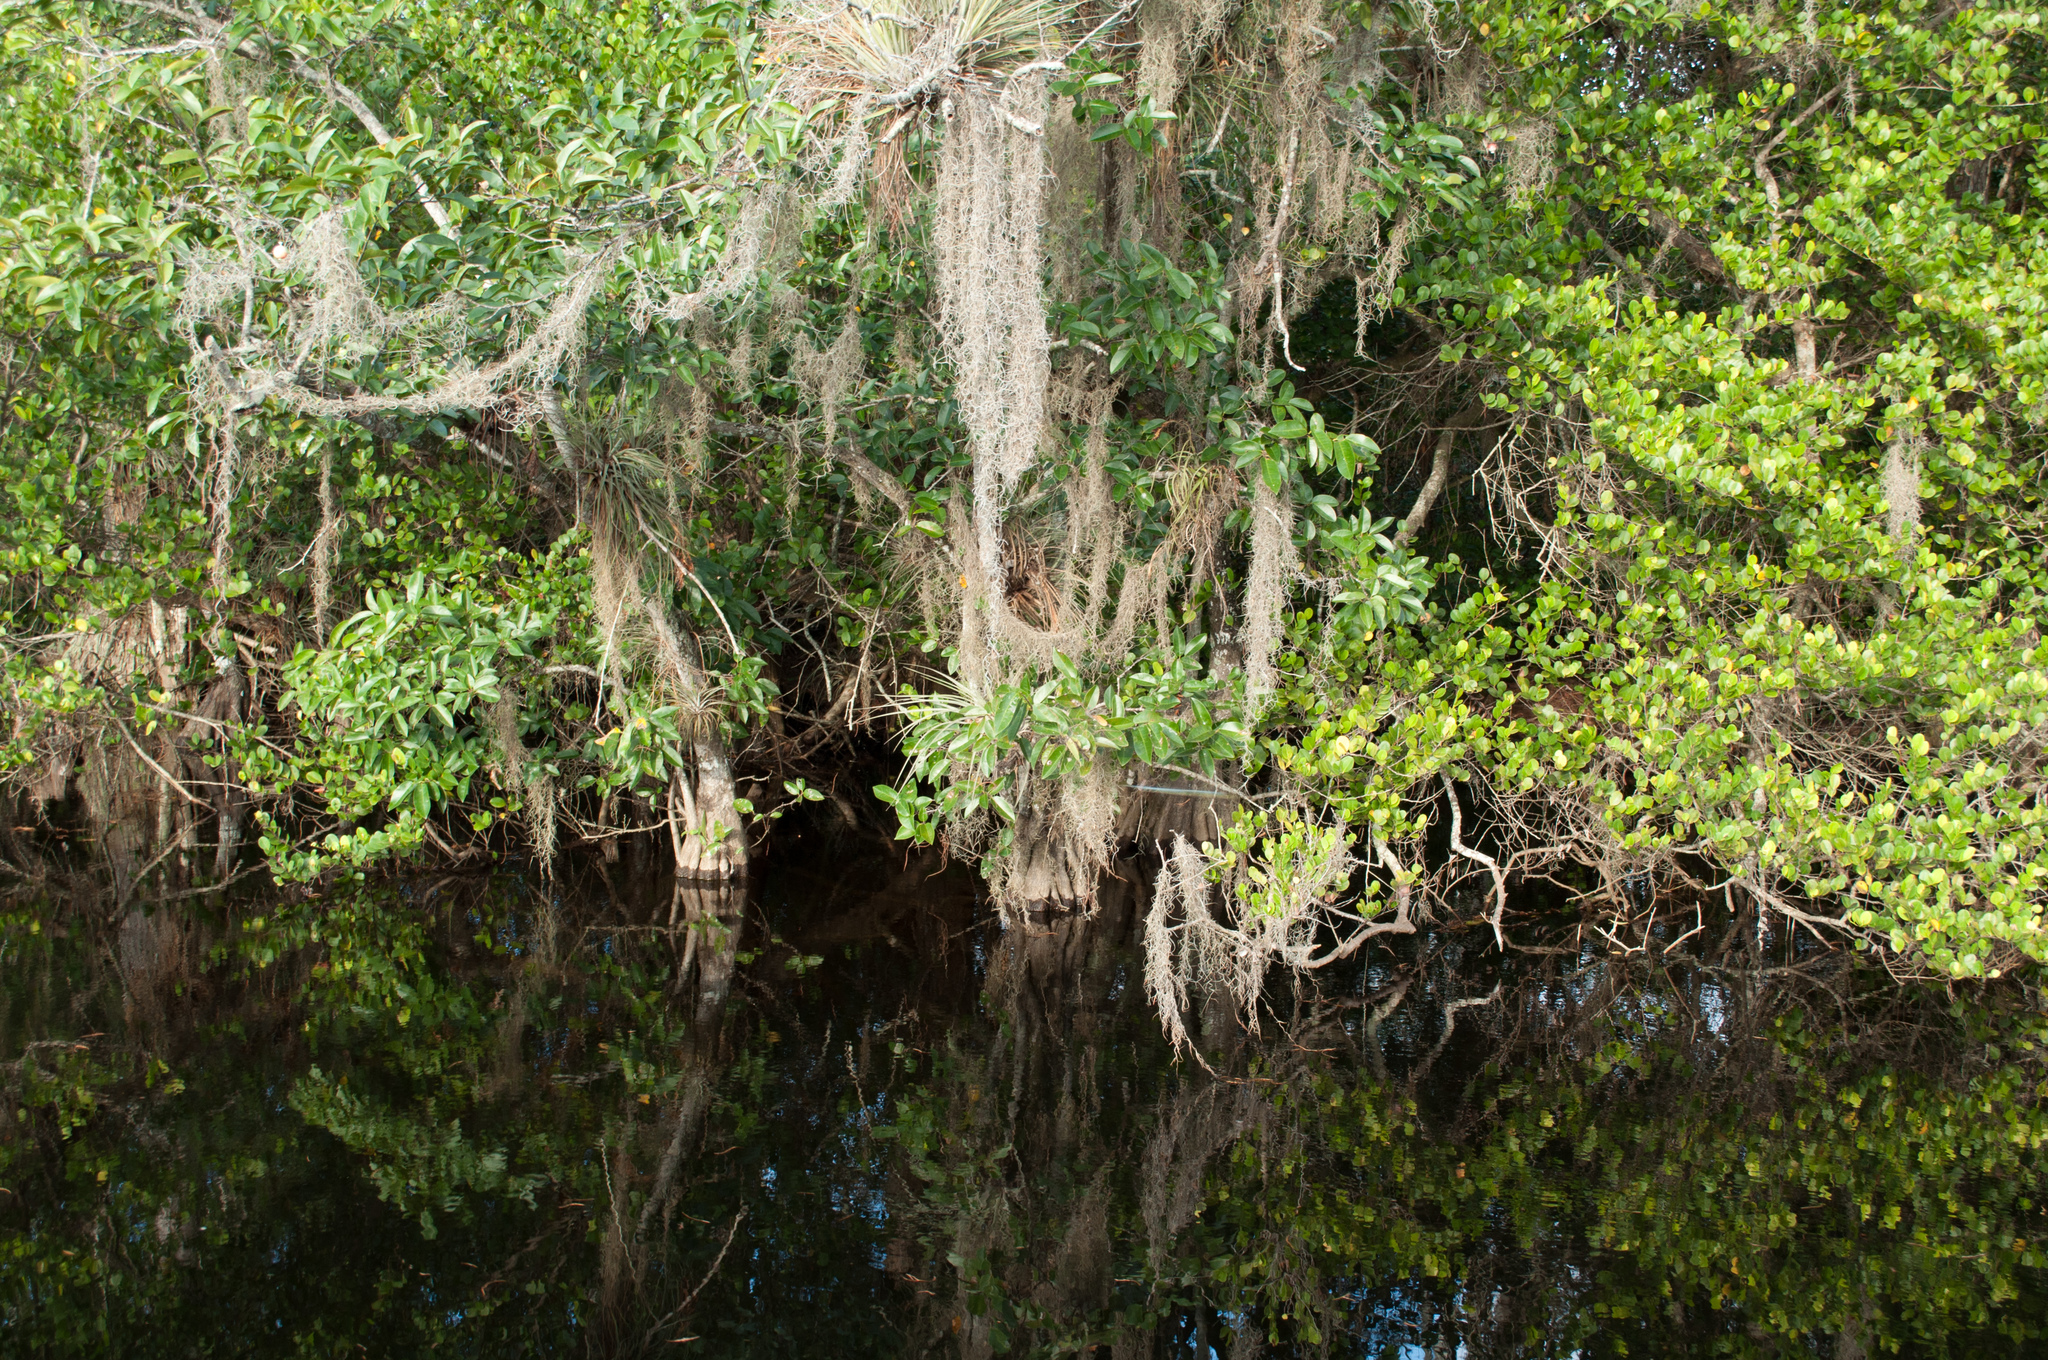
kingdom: Plantae
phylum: Tracheophyta
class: Liliopsida
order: Poales
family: Bromeliaceae
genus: Tillandsia
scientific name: Tillandsia usneoides
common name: Spanish moss
